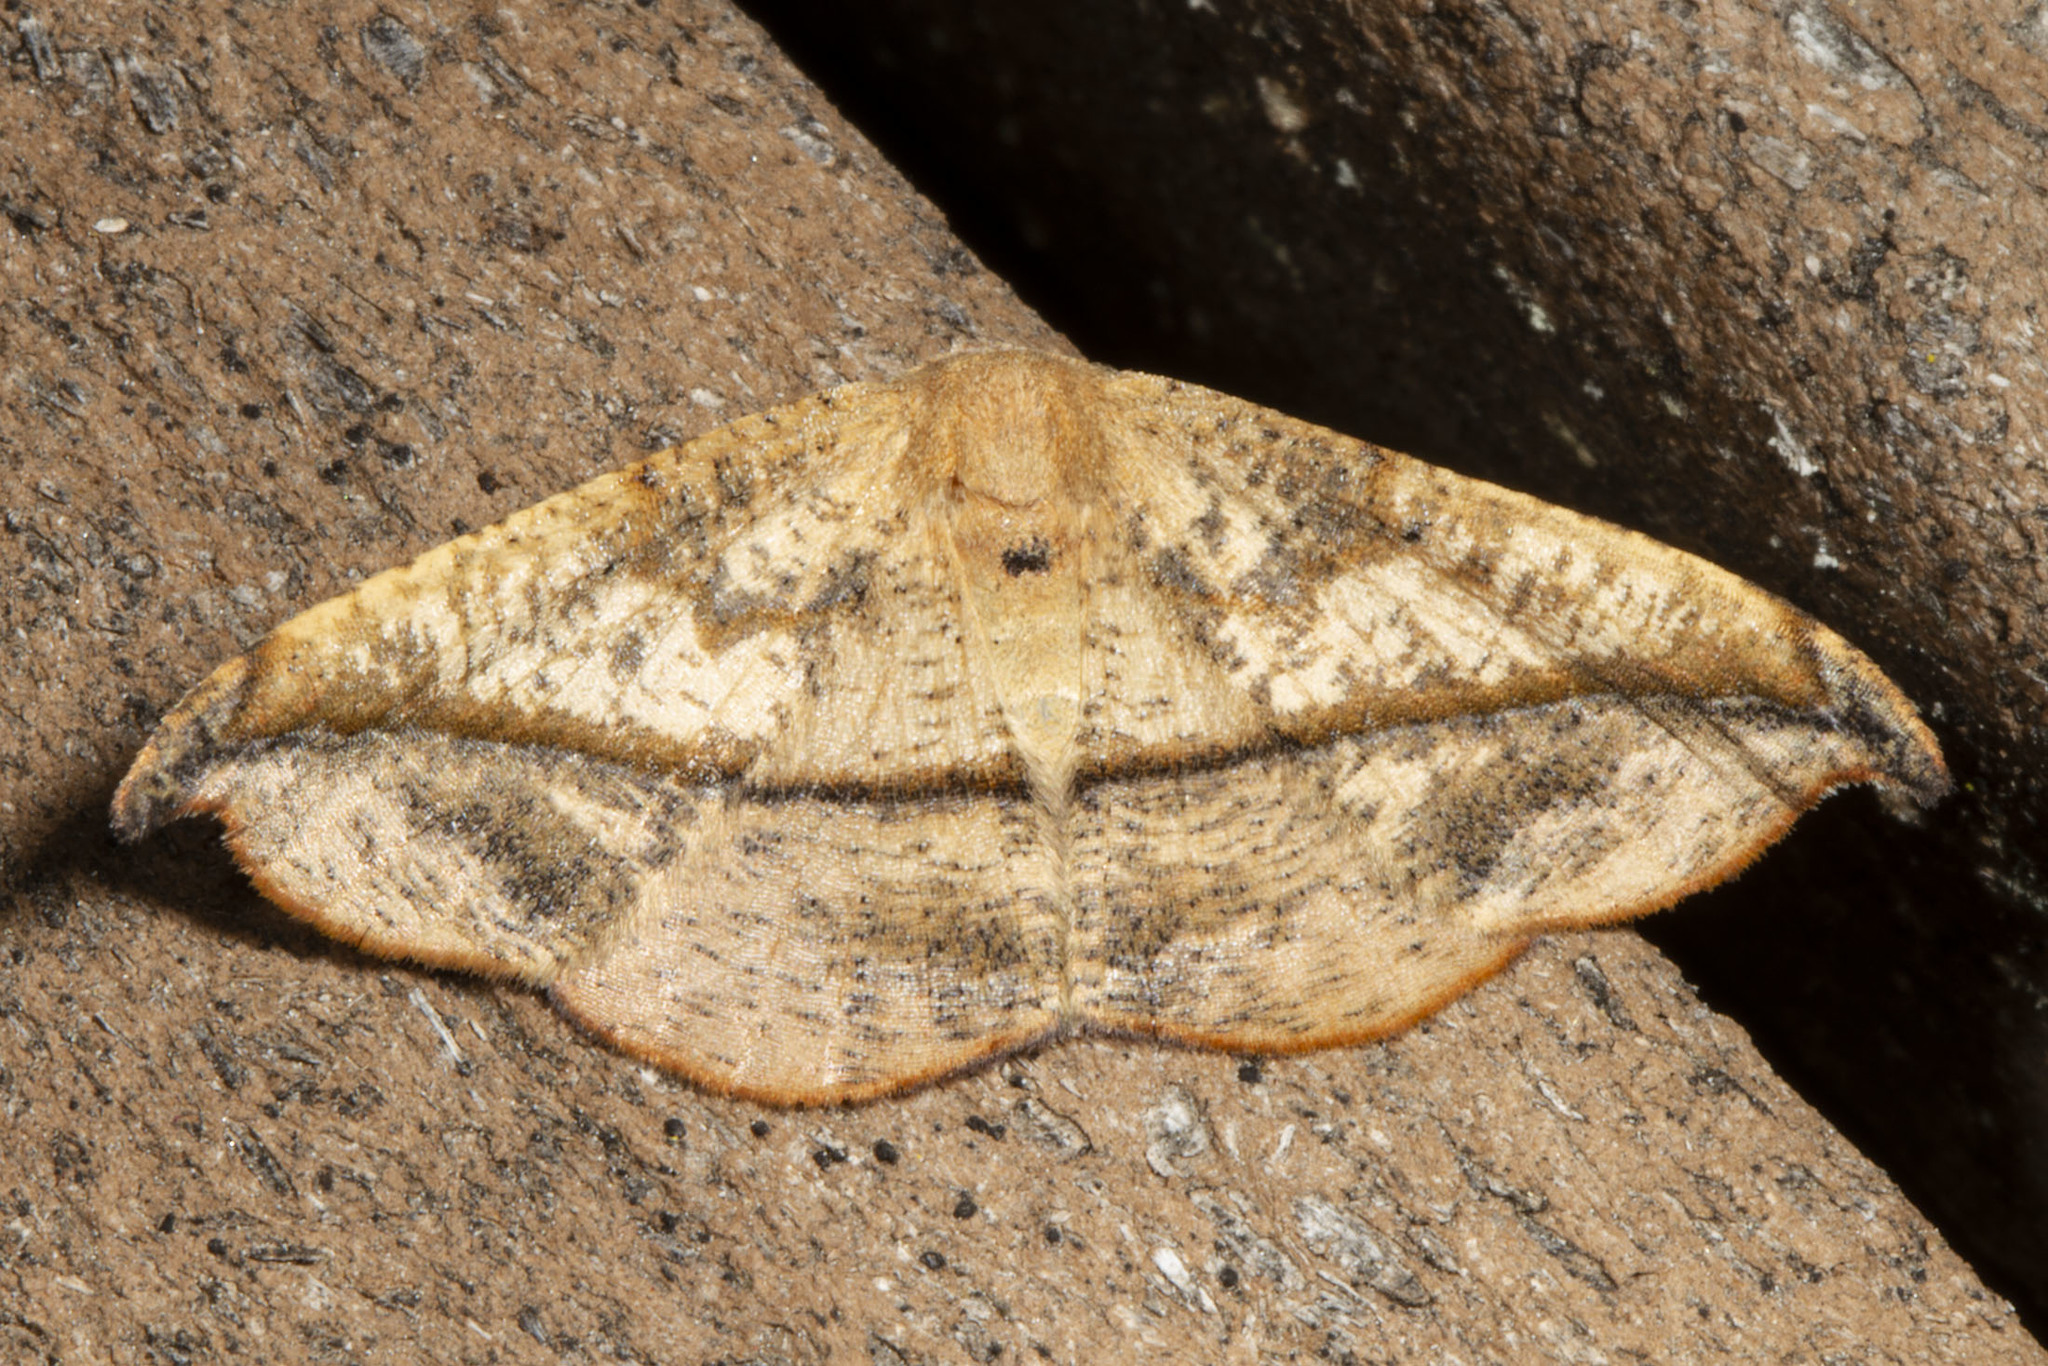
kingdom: Animalia
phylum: Arthropoda
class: Insecta
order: Lepidoptera
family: Geometridae
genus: Patalene
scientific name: Patalene olyzonaria
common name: Juniper geometer moth
